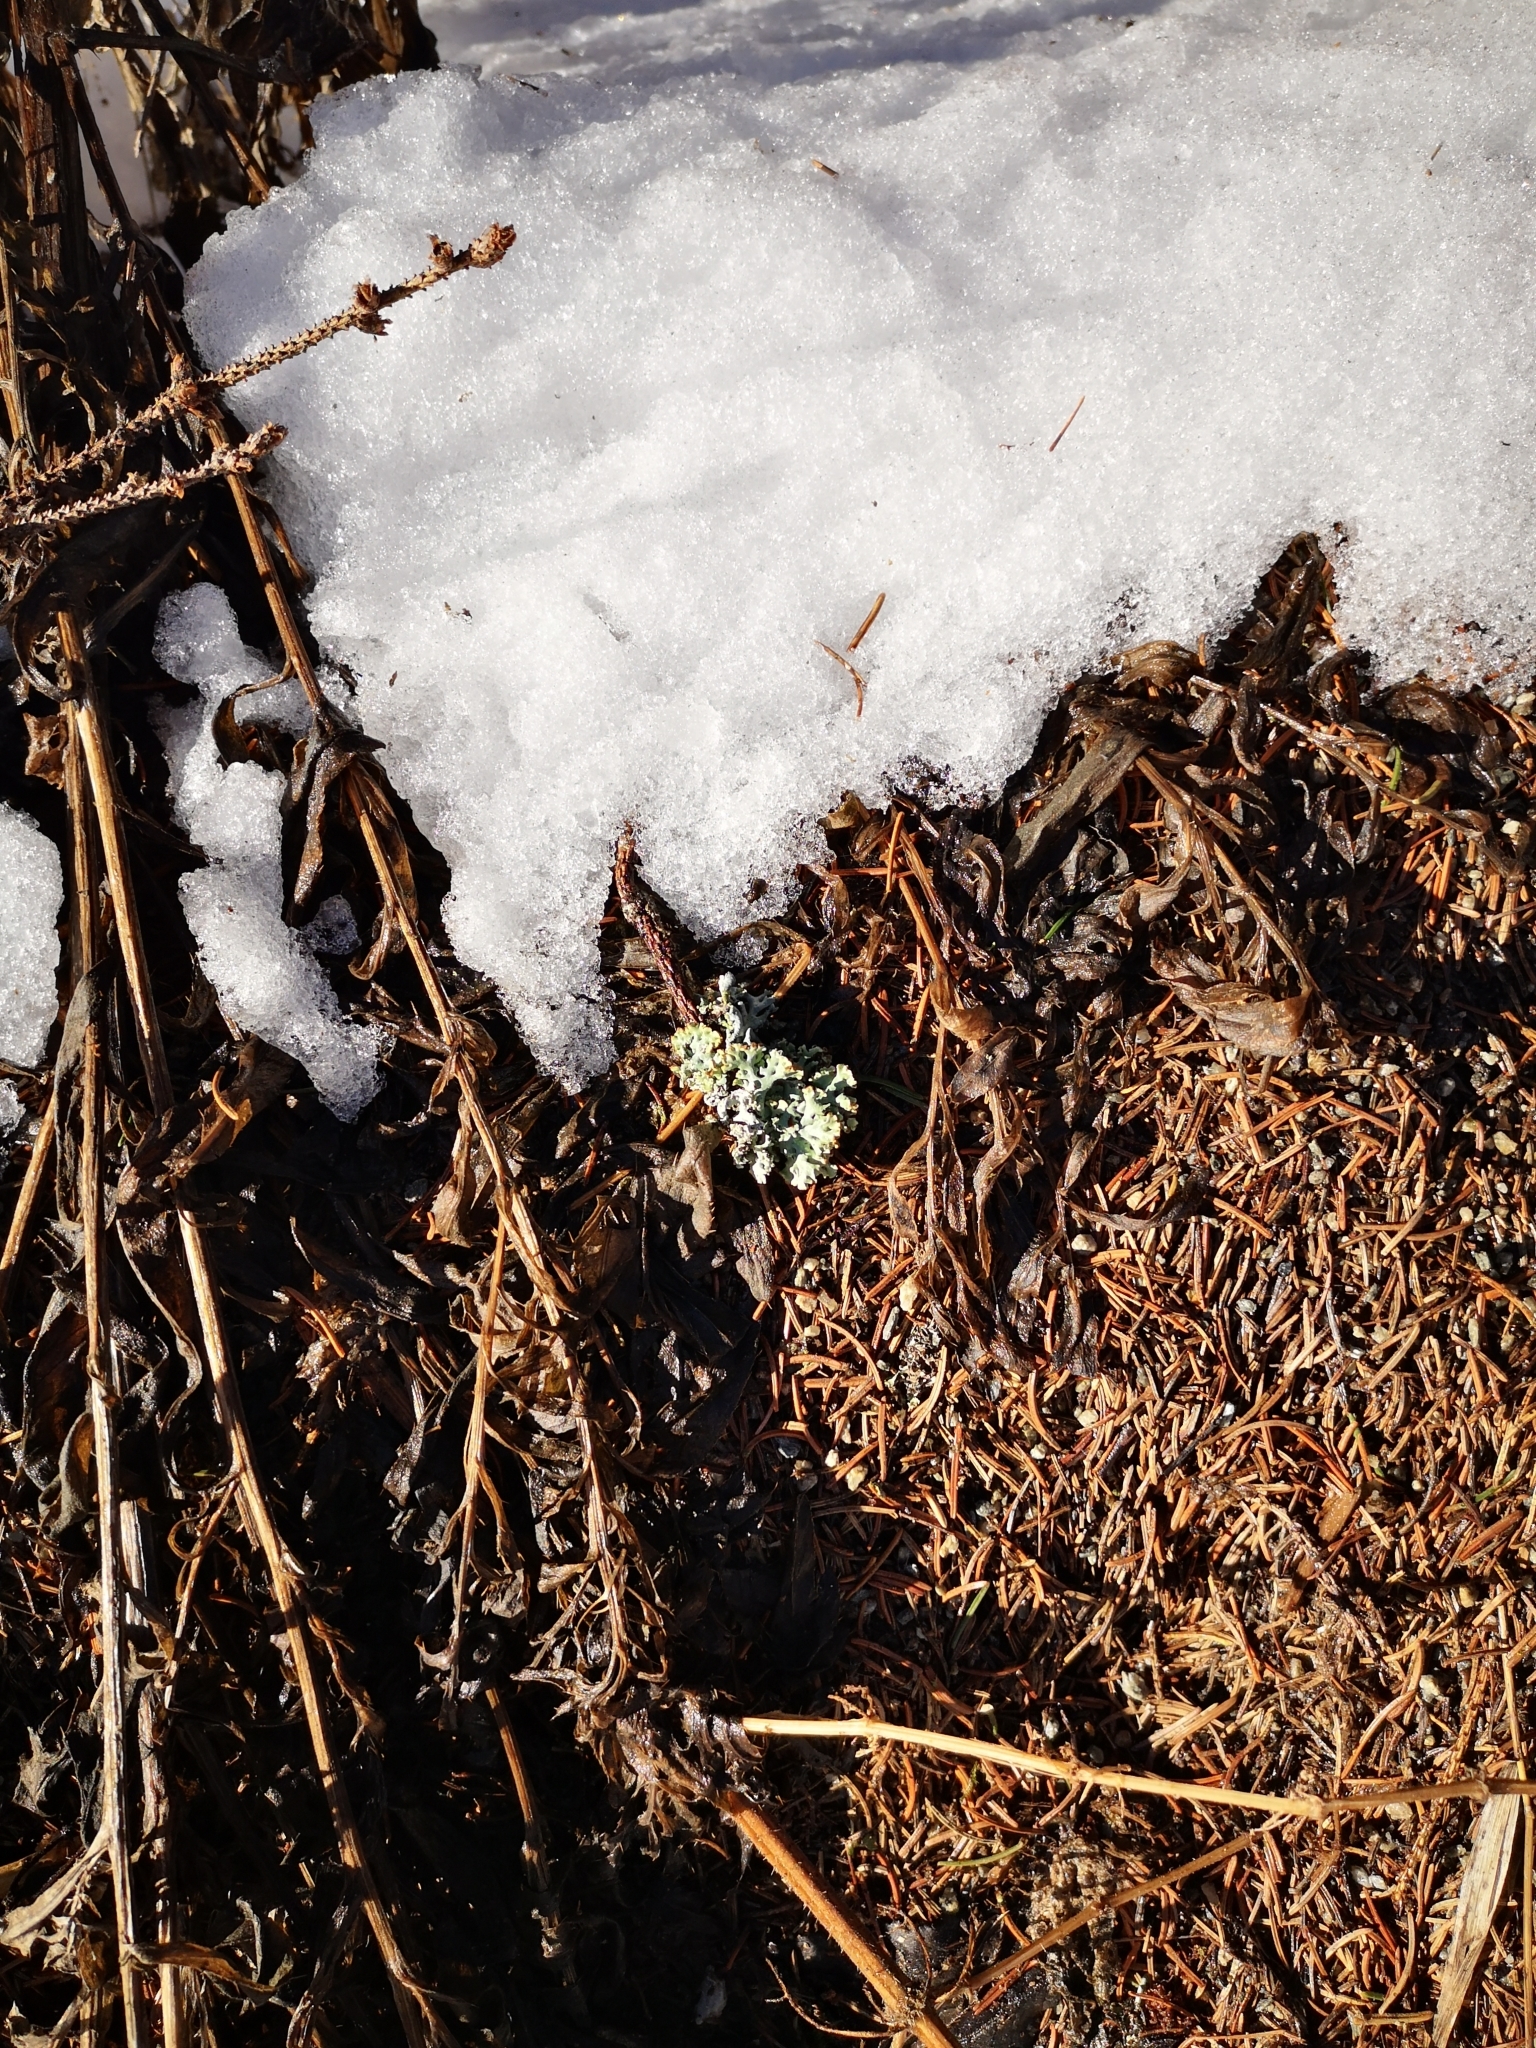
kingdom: Fungi
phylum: Ascomycota
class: Lecanoromycetes
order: Lecanorales
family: Parmeliaceae
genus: Hypogymnia
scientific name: Hypogymnia physodes
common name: Dark crottle
